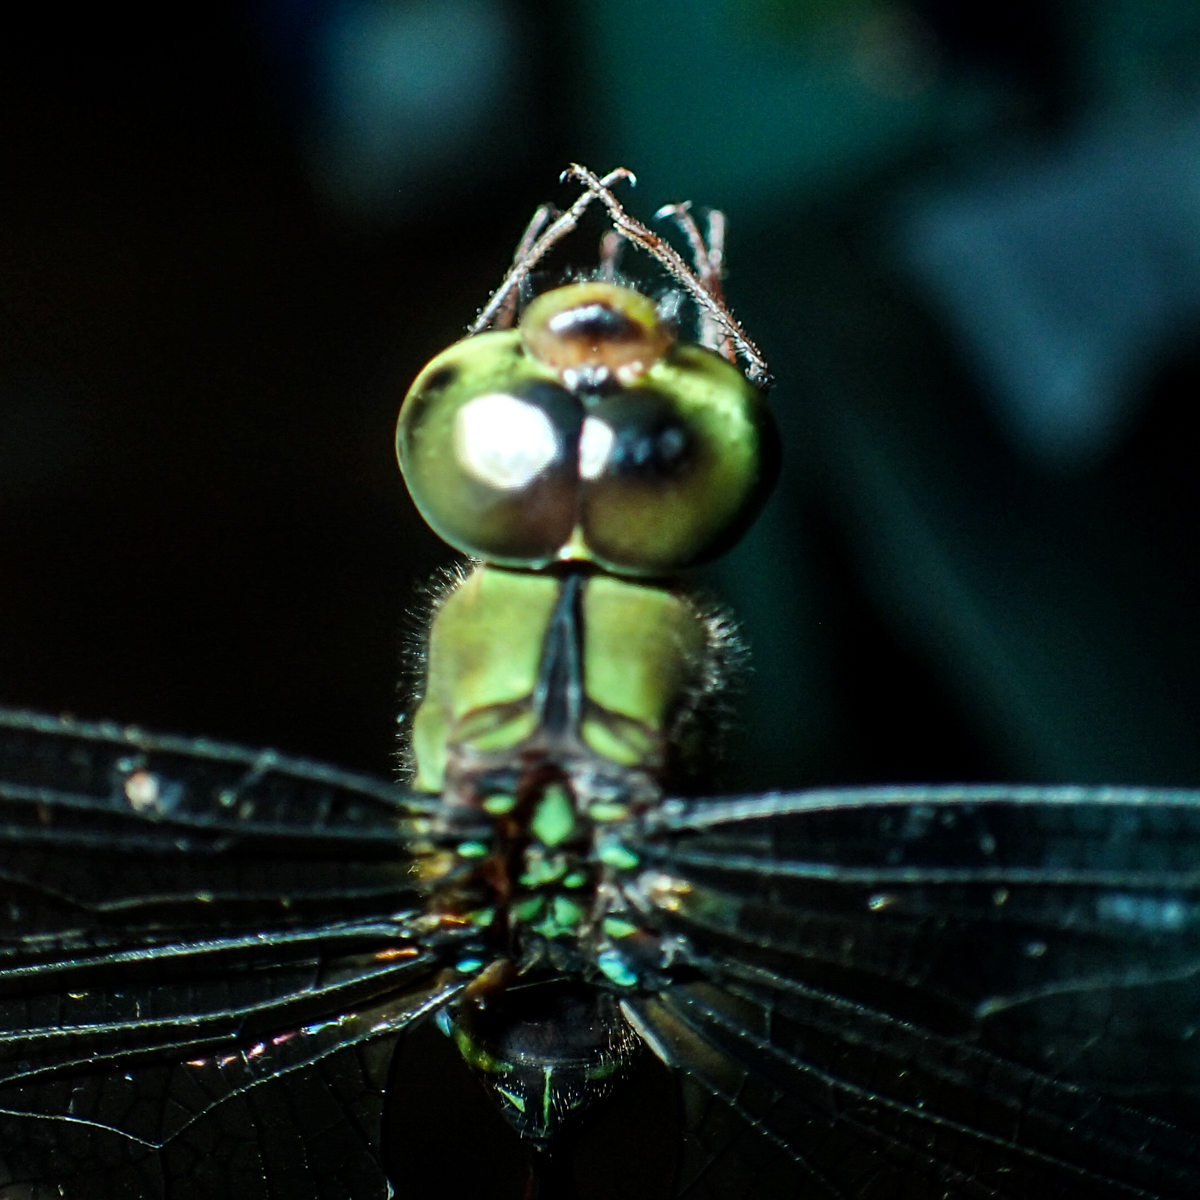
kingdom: Animalia
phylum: Arthropoda
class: Insecta
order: Odonata
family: Aeshnidae
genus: Gynacantha
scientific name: Gynacantha demeter
